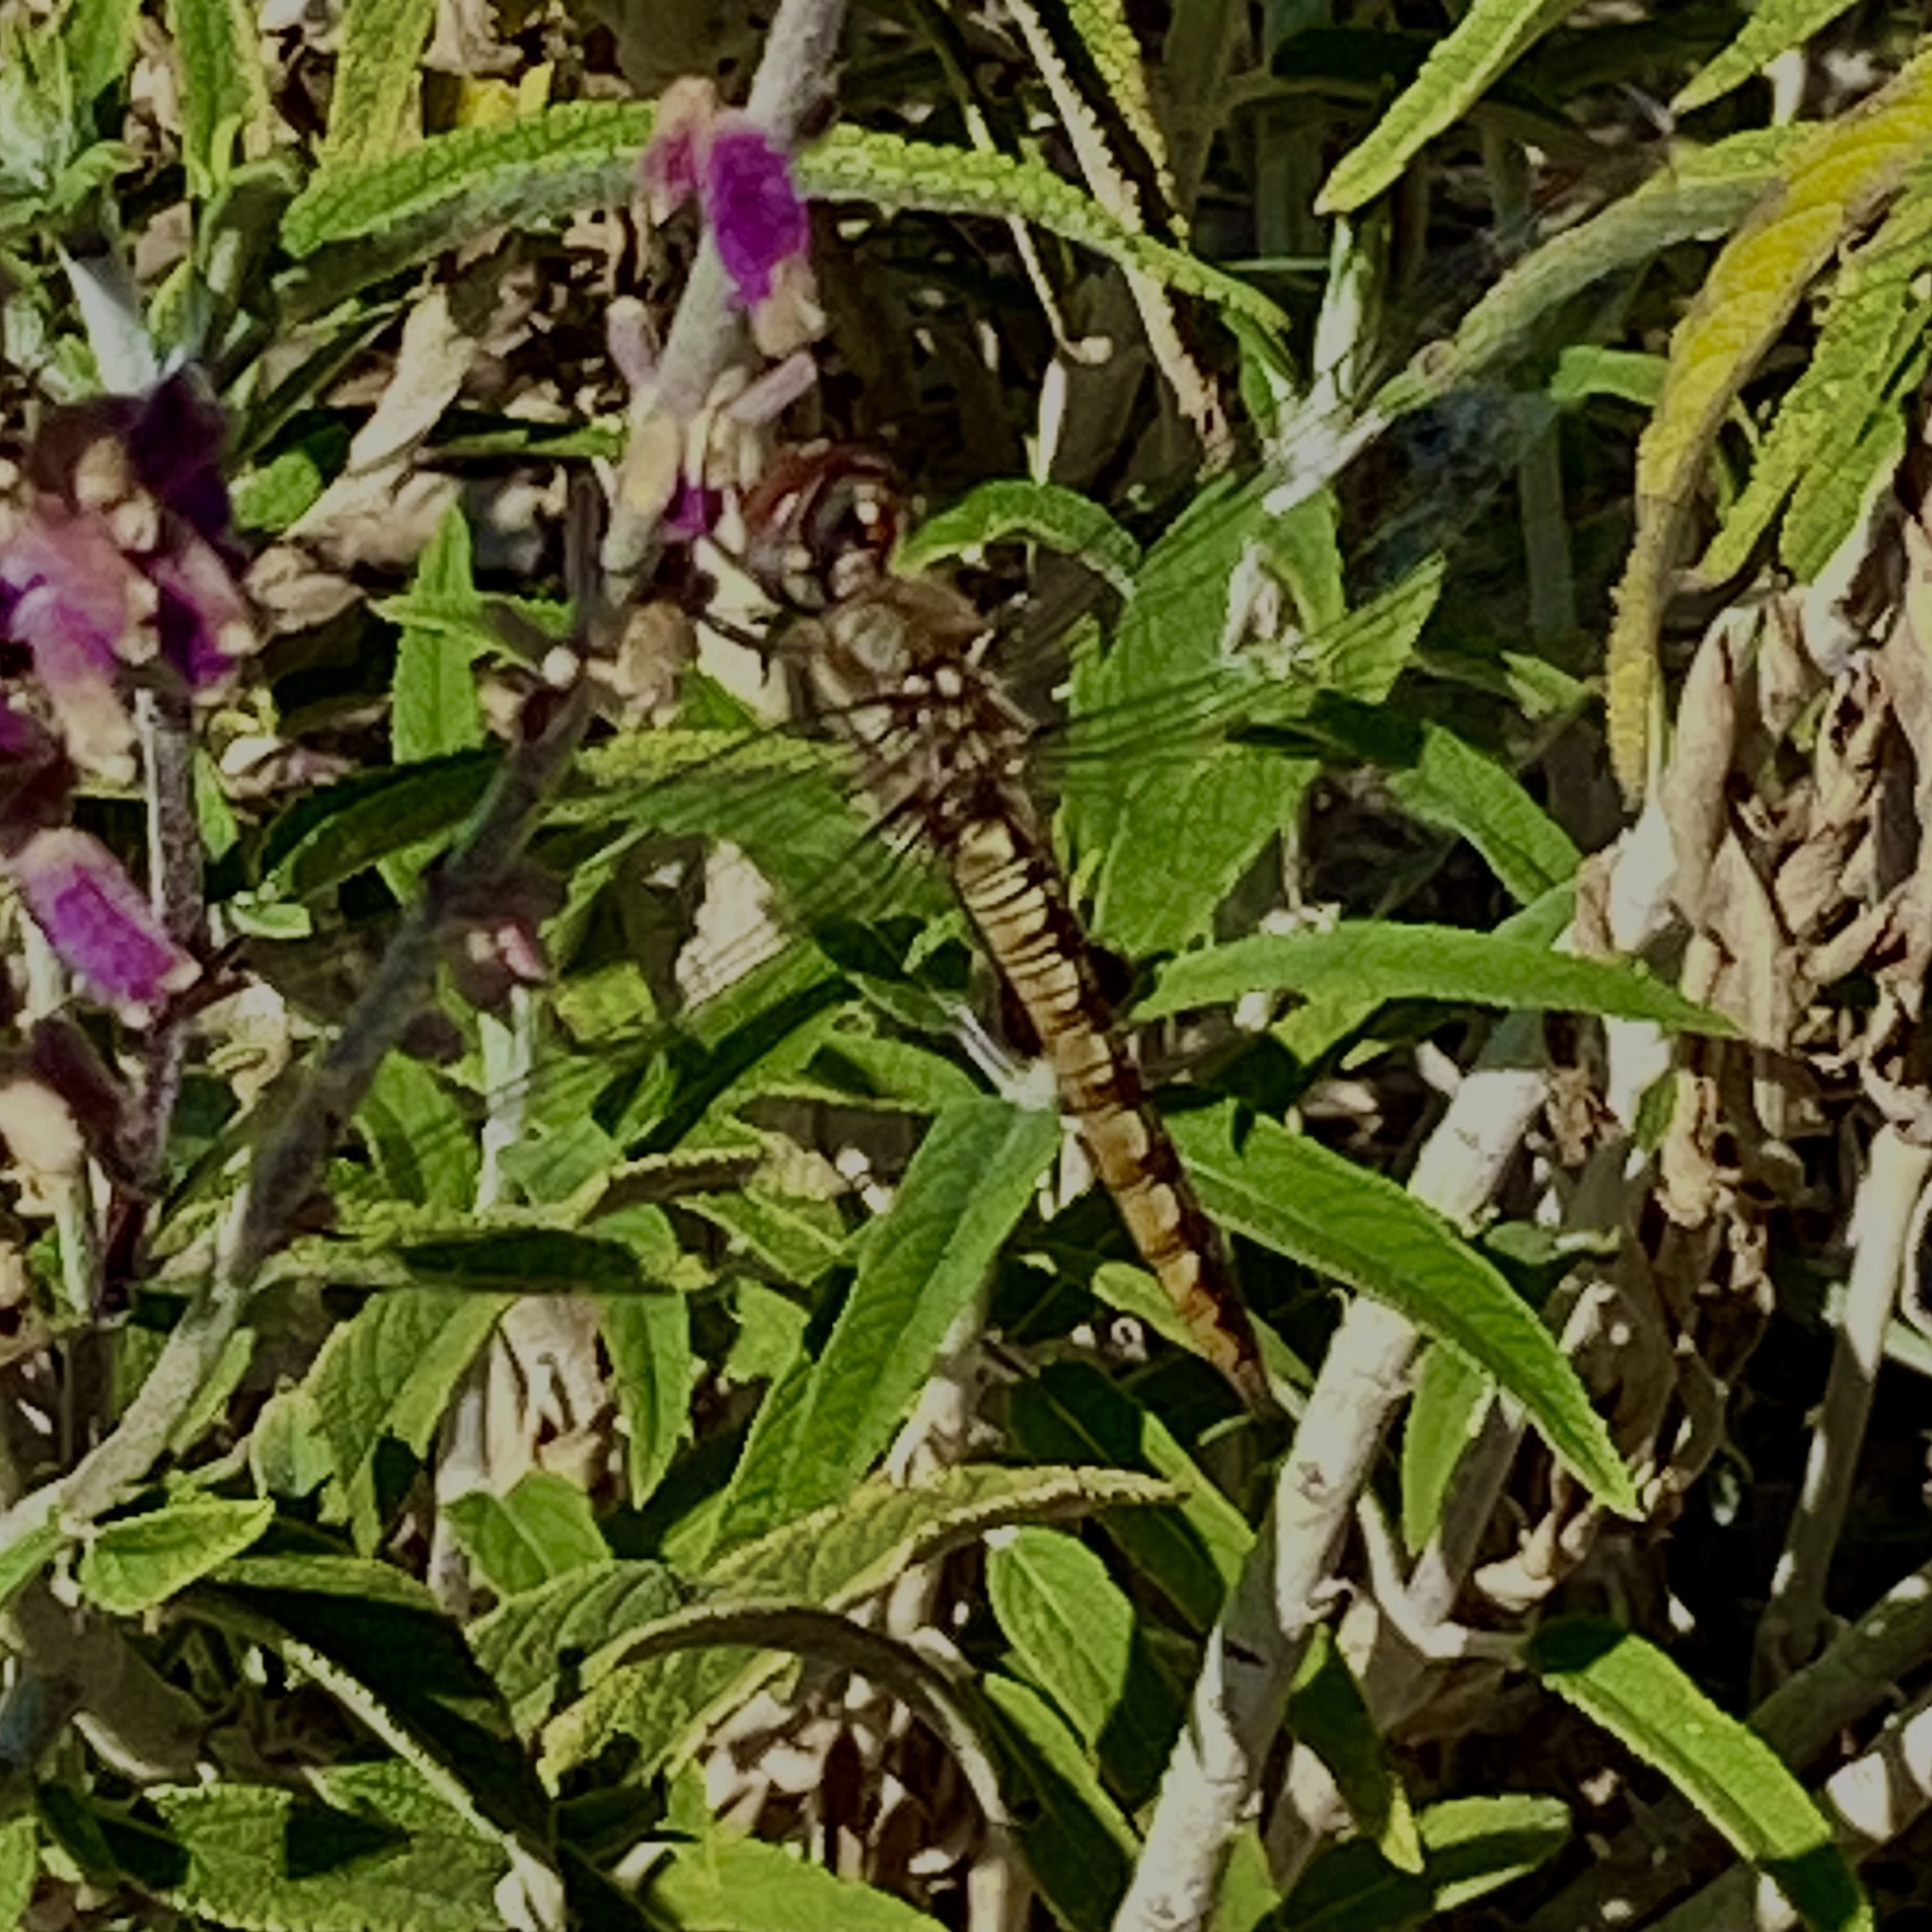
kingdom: Animalia
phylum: Arthropoda
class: Insecta
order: Odonata
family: Libellulidae
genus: Pantala
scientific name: Pantala hymenaea
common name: Spot-winged glider
